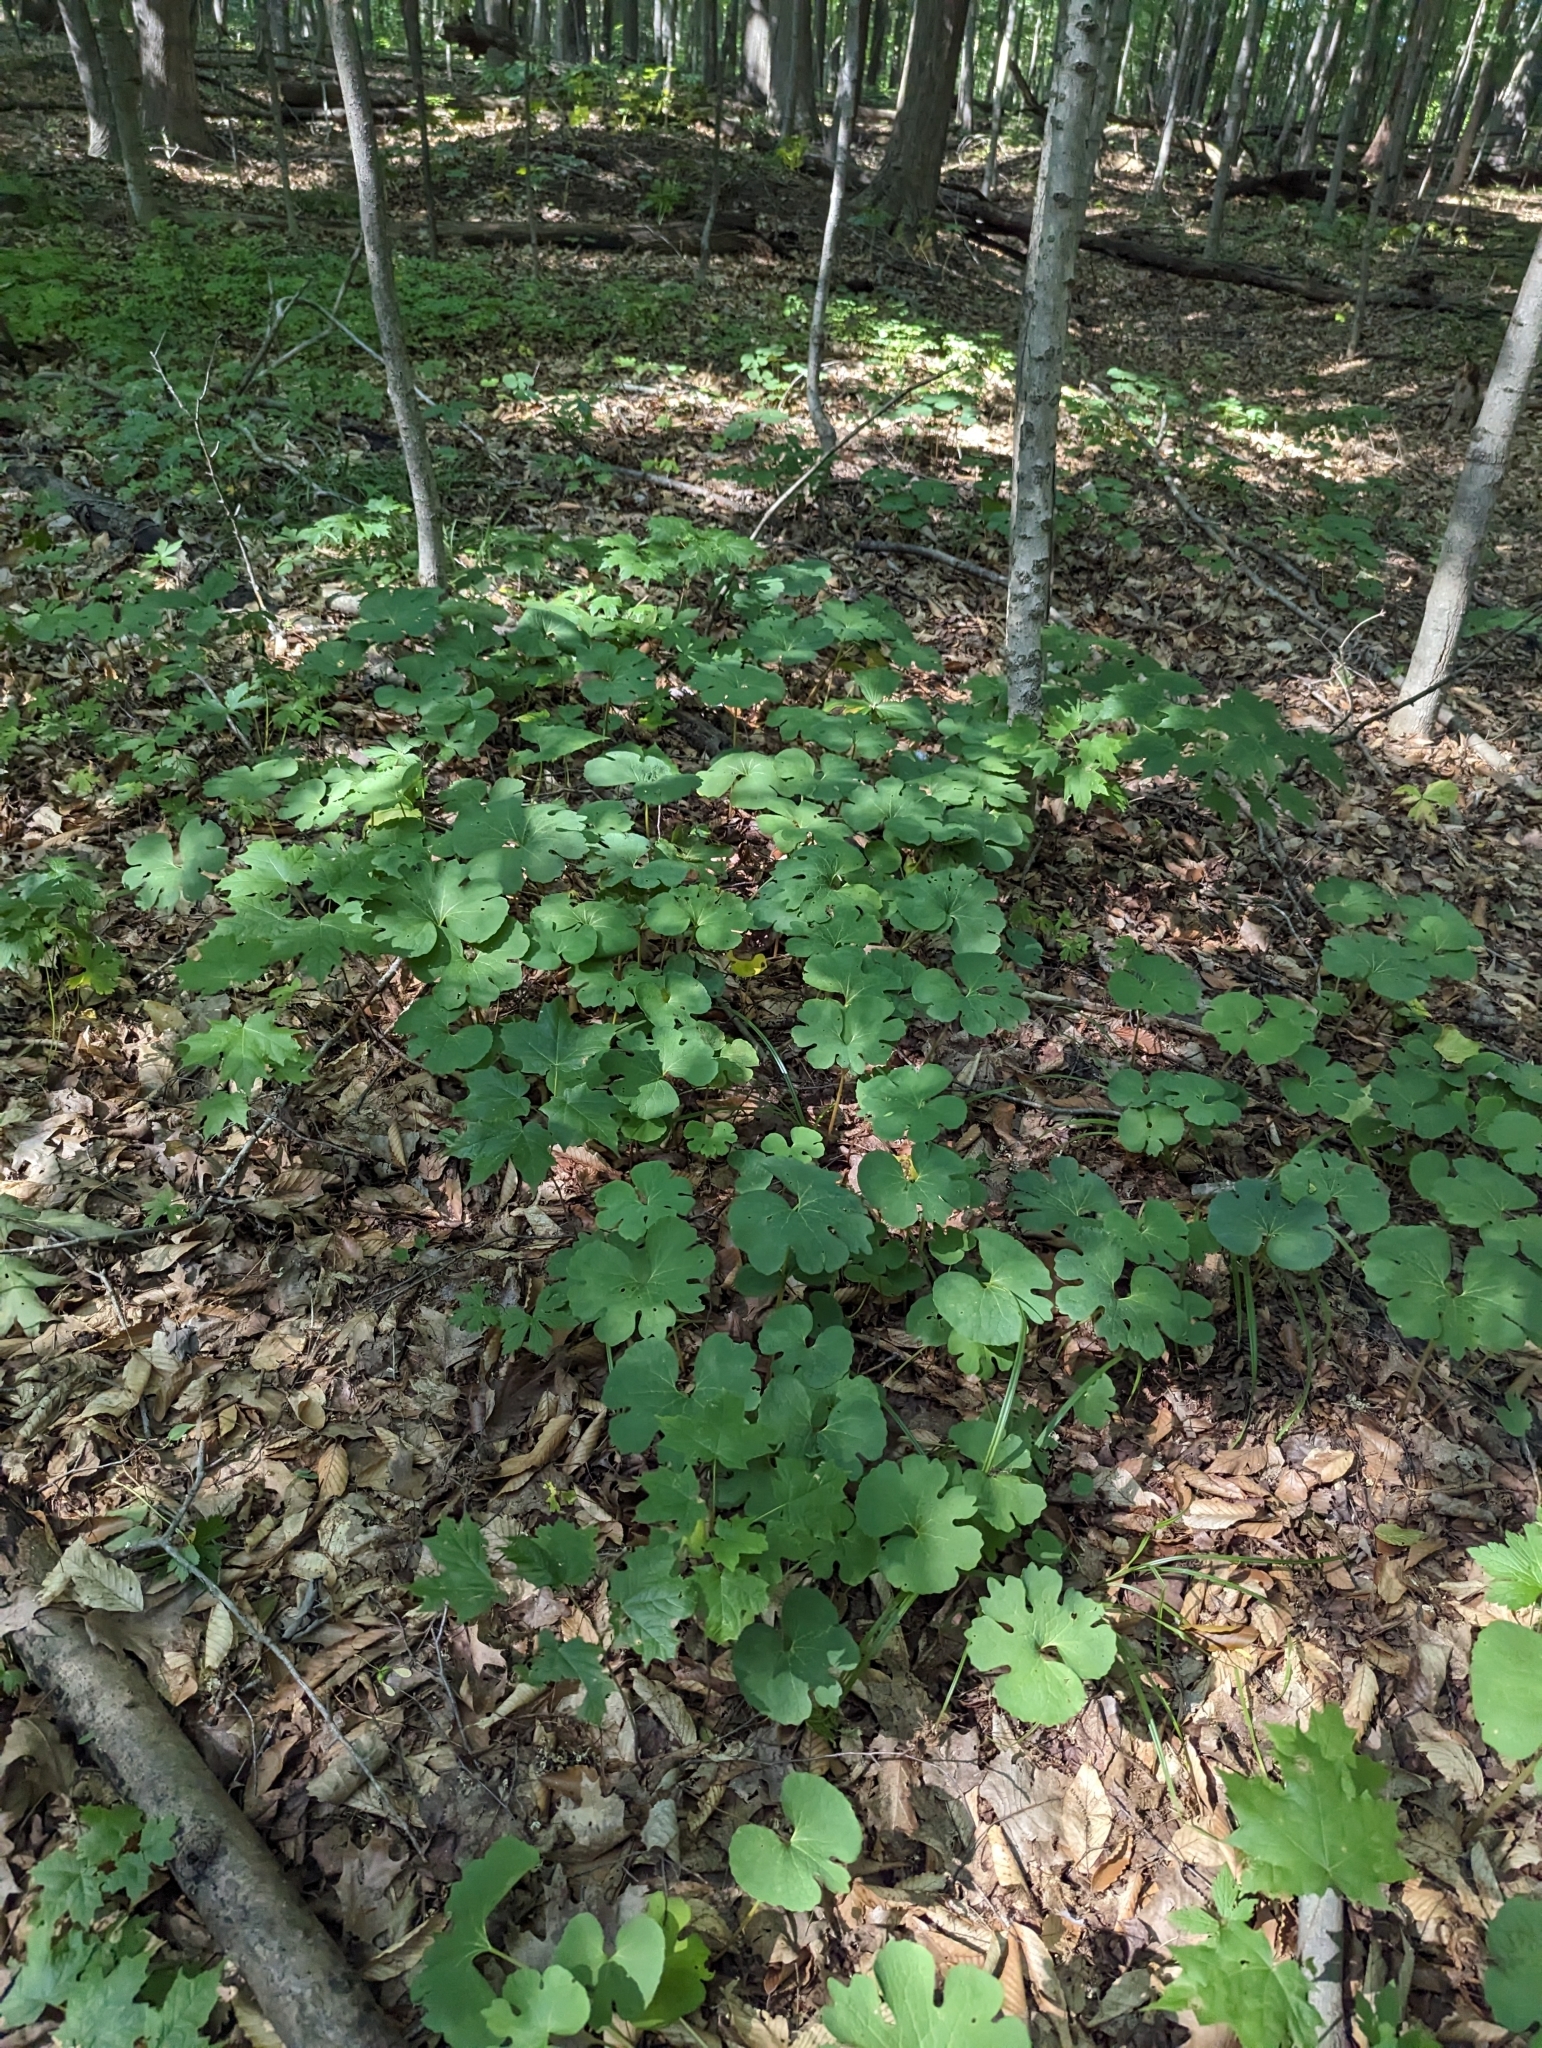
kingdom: Plantae
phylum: Tracheophyta
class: Magnoliopsida
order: Ranunculales
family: Papaveraceae
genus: Sanguinaria
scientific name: Sanguinaria canadensis
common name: Bloodroot
